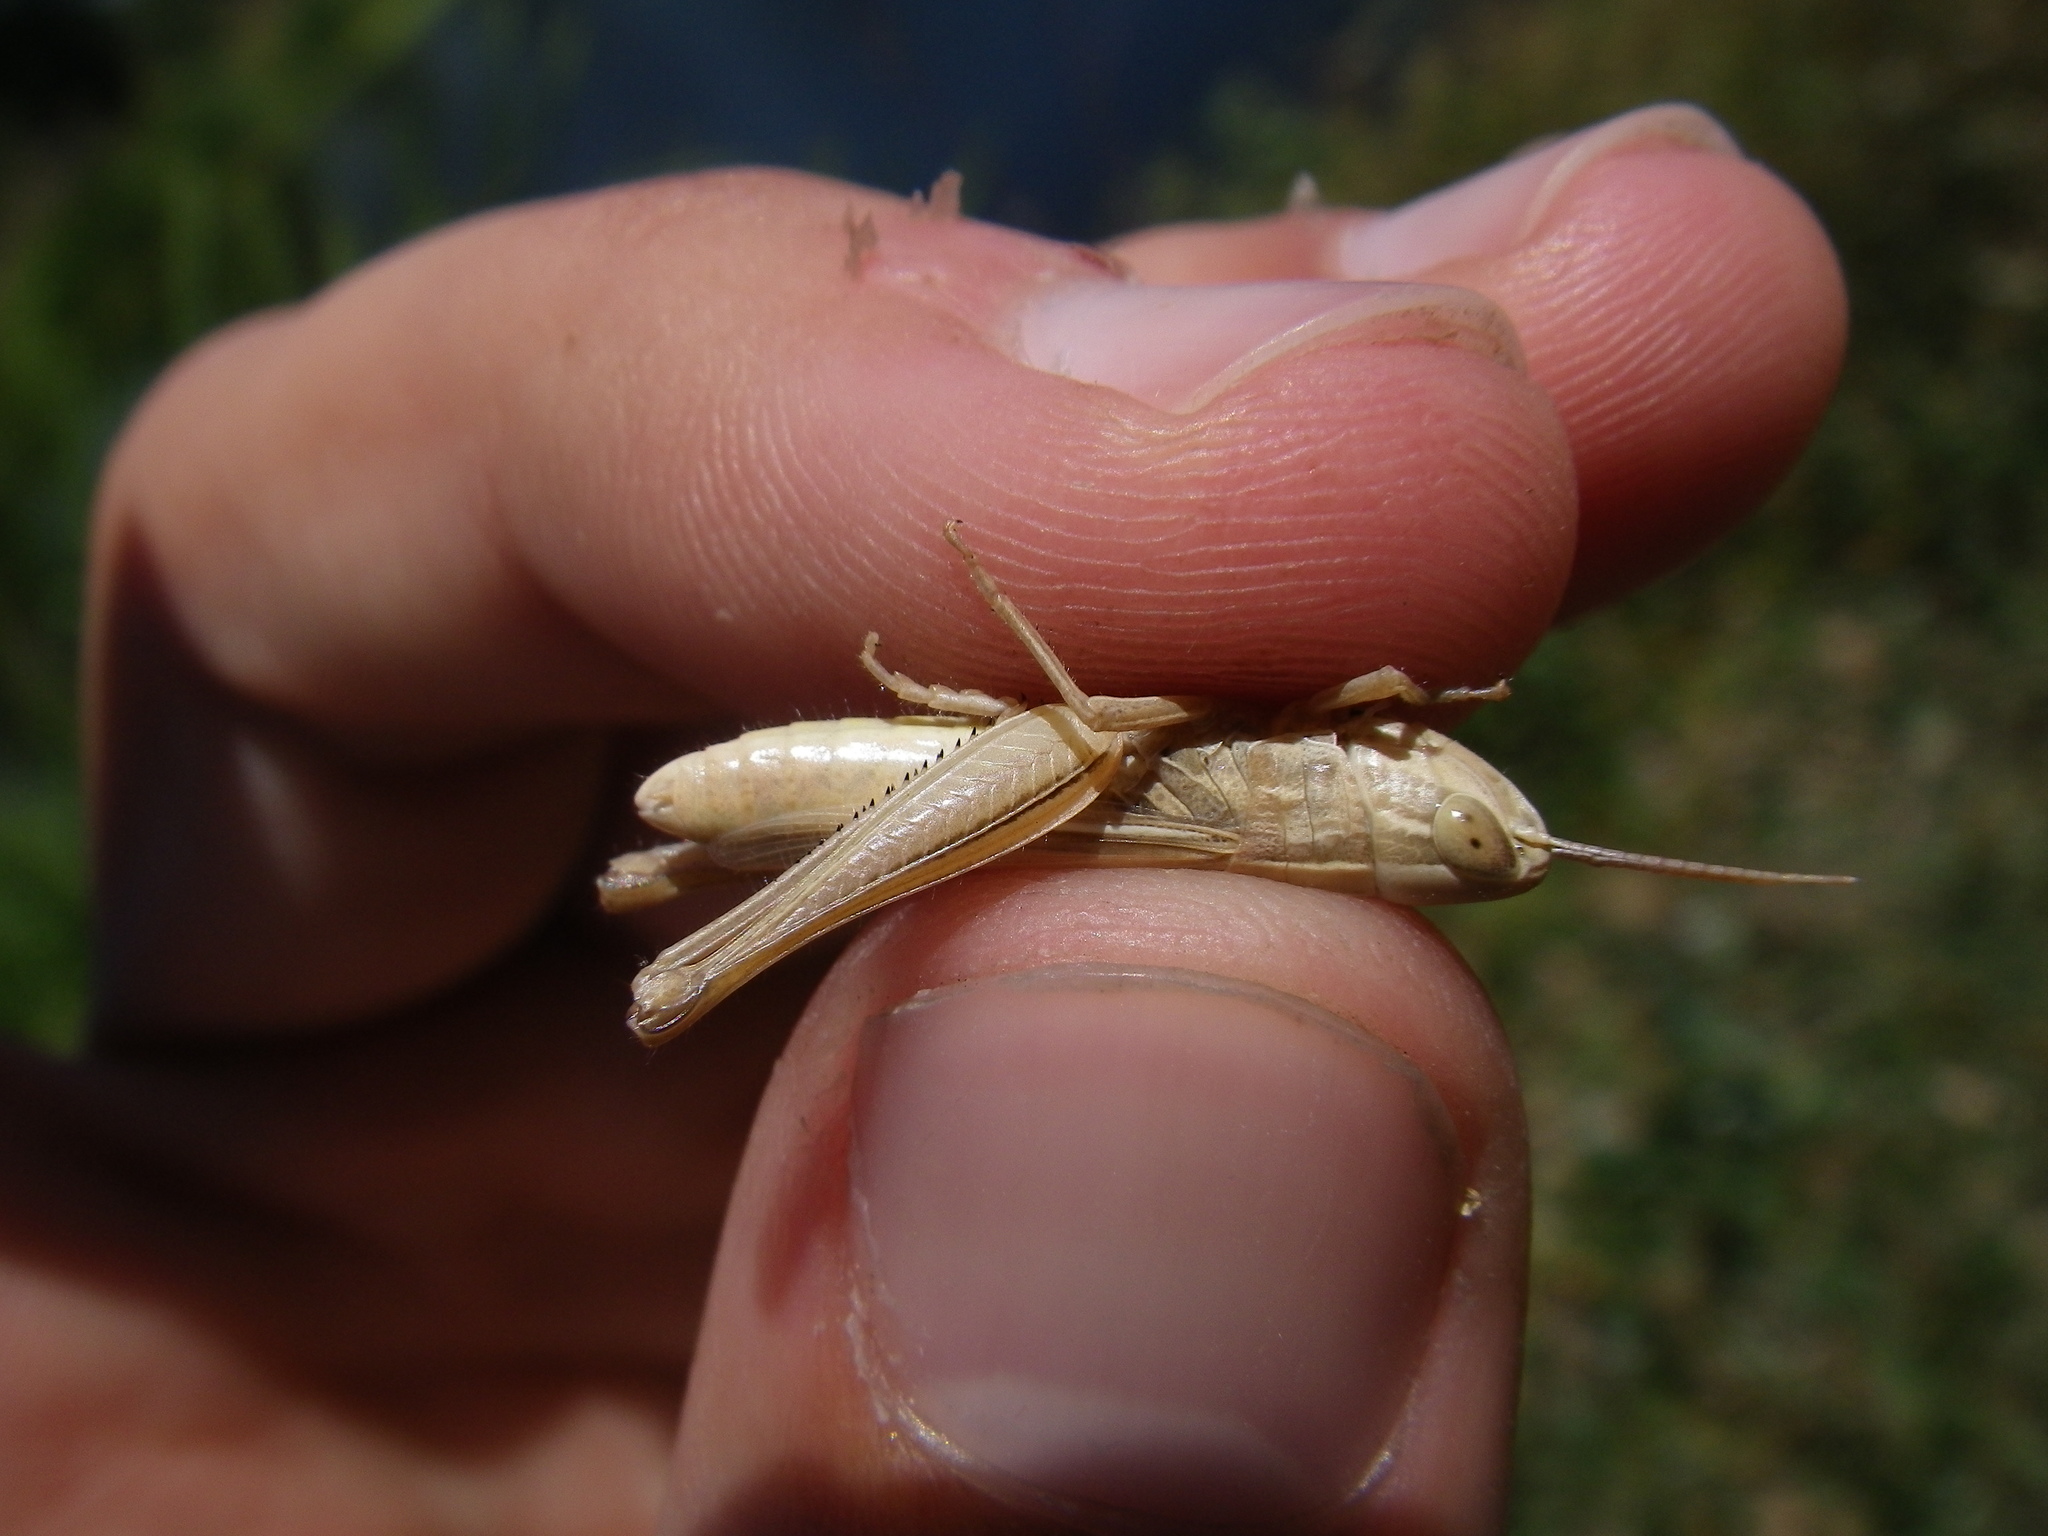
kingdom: Animalia
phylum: Arthropoda
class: Insecta
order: Orthoptera
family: Acrididae
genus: Euchorthippus
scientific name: Euchorthippus elegantulus
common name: Elegant straw grasshopper
